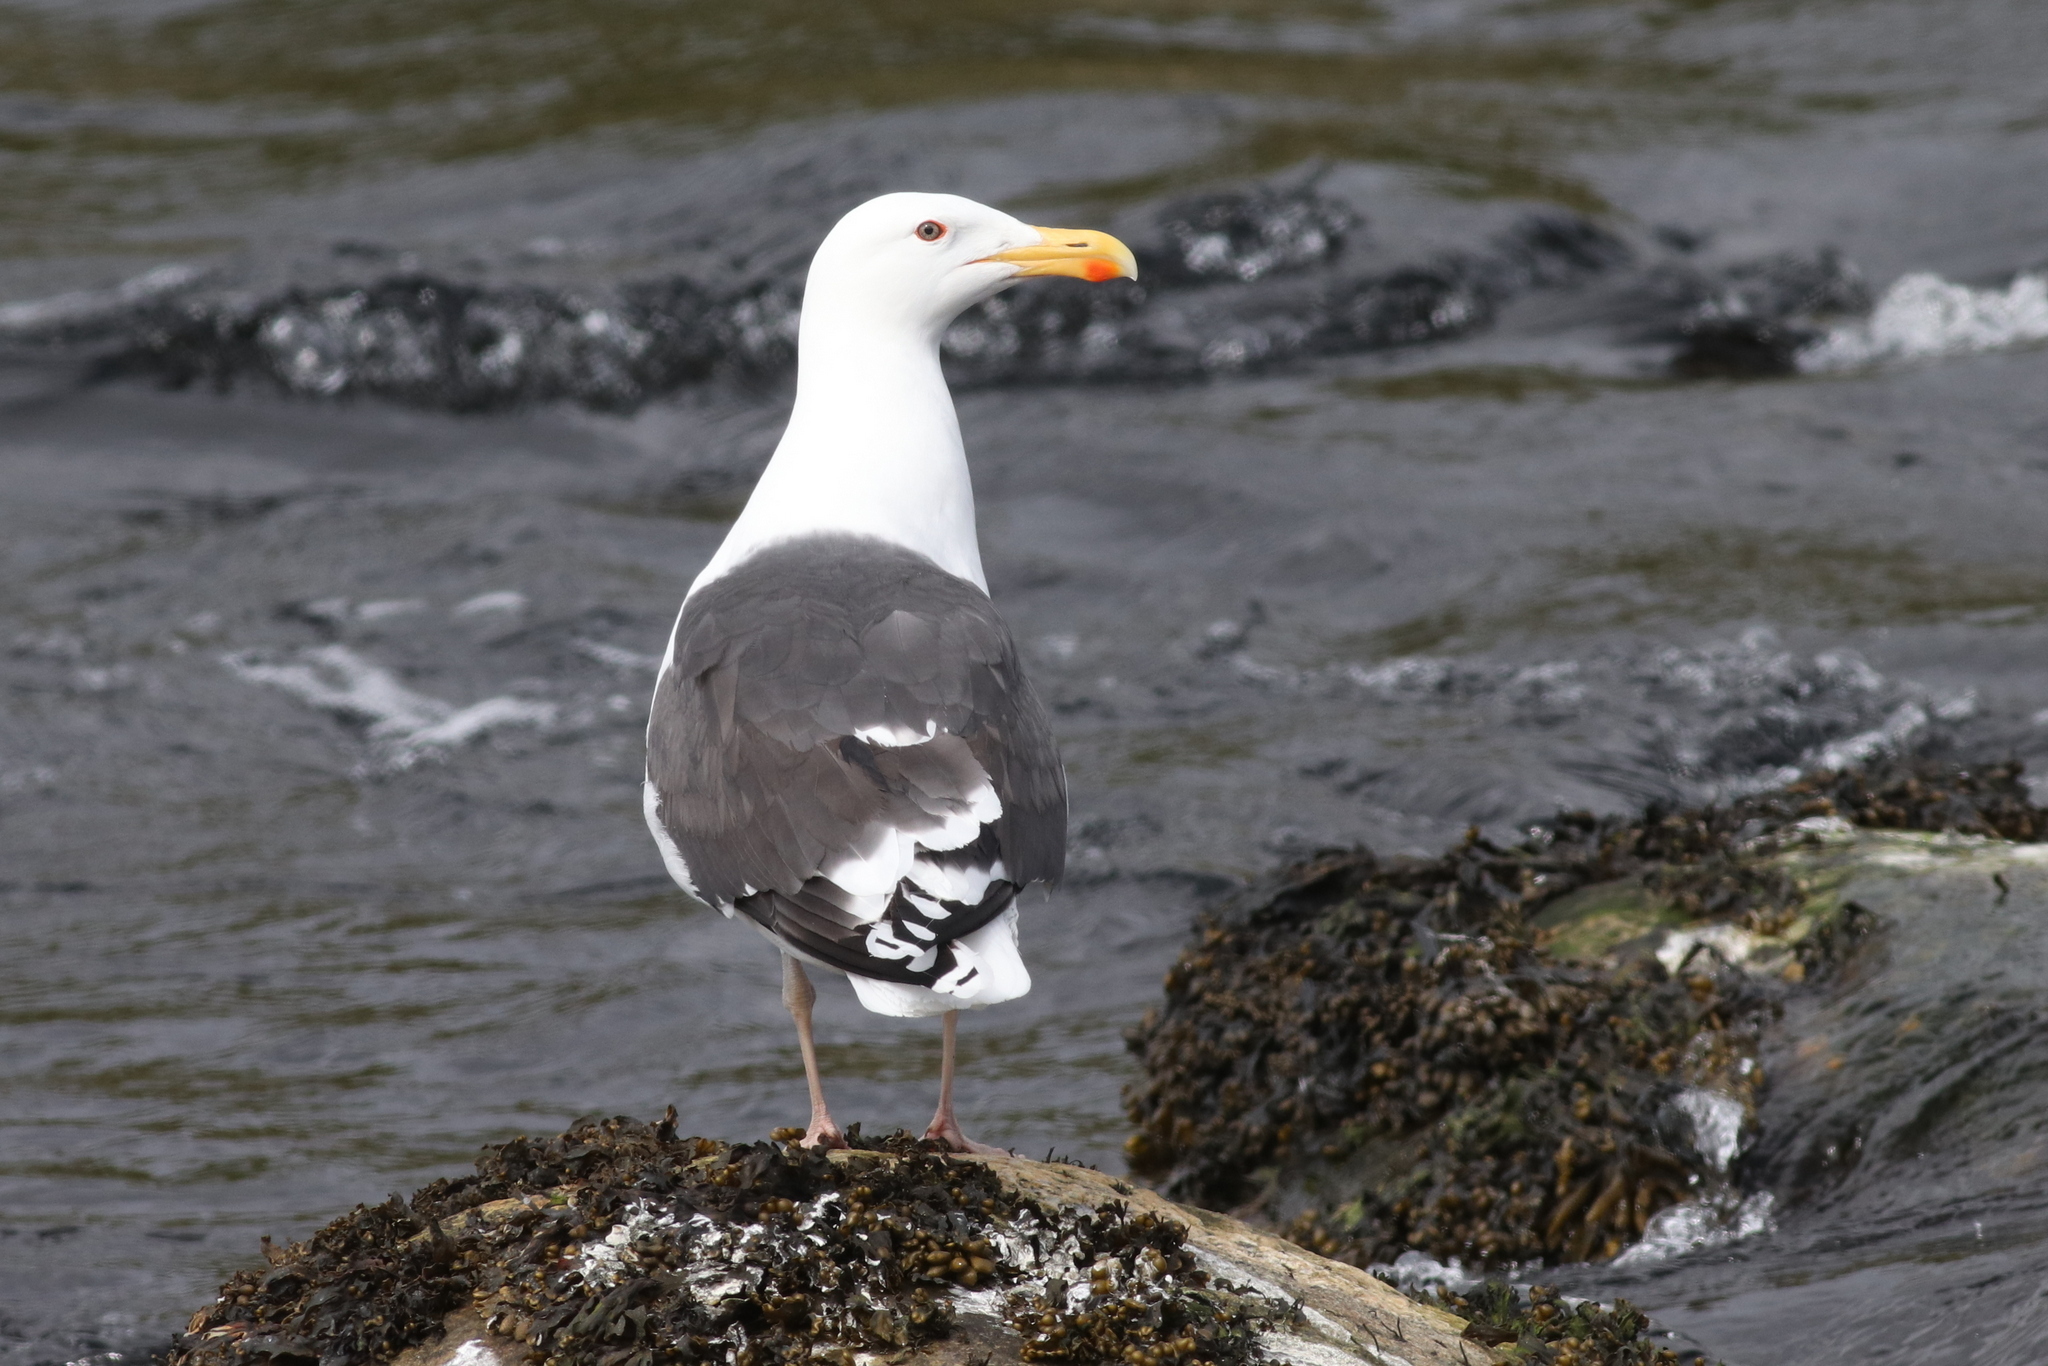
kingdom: Animalia
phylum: Chordata
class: Aves
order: Charadriiformes
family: Laridae
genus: Larus
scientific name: Larus marinus
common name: Great black-backed gull
